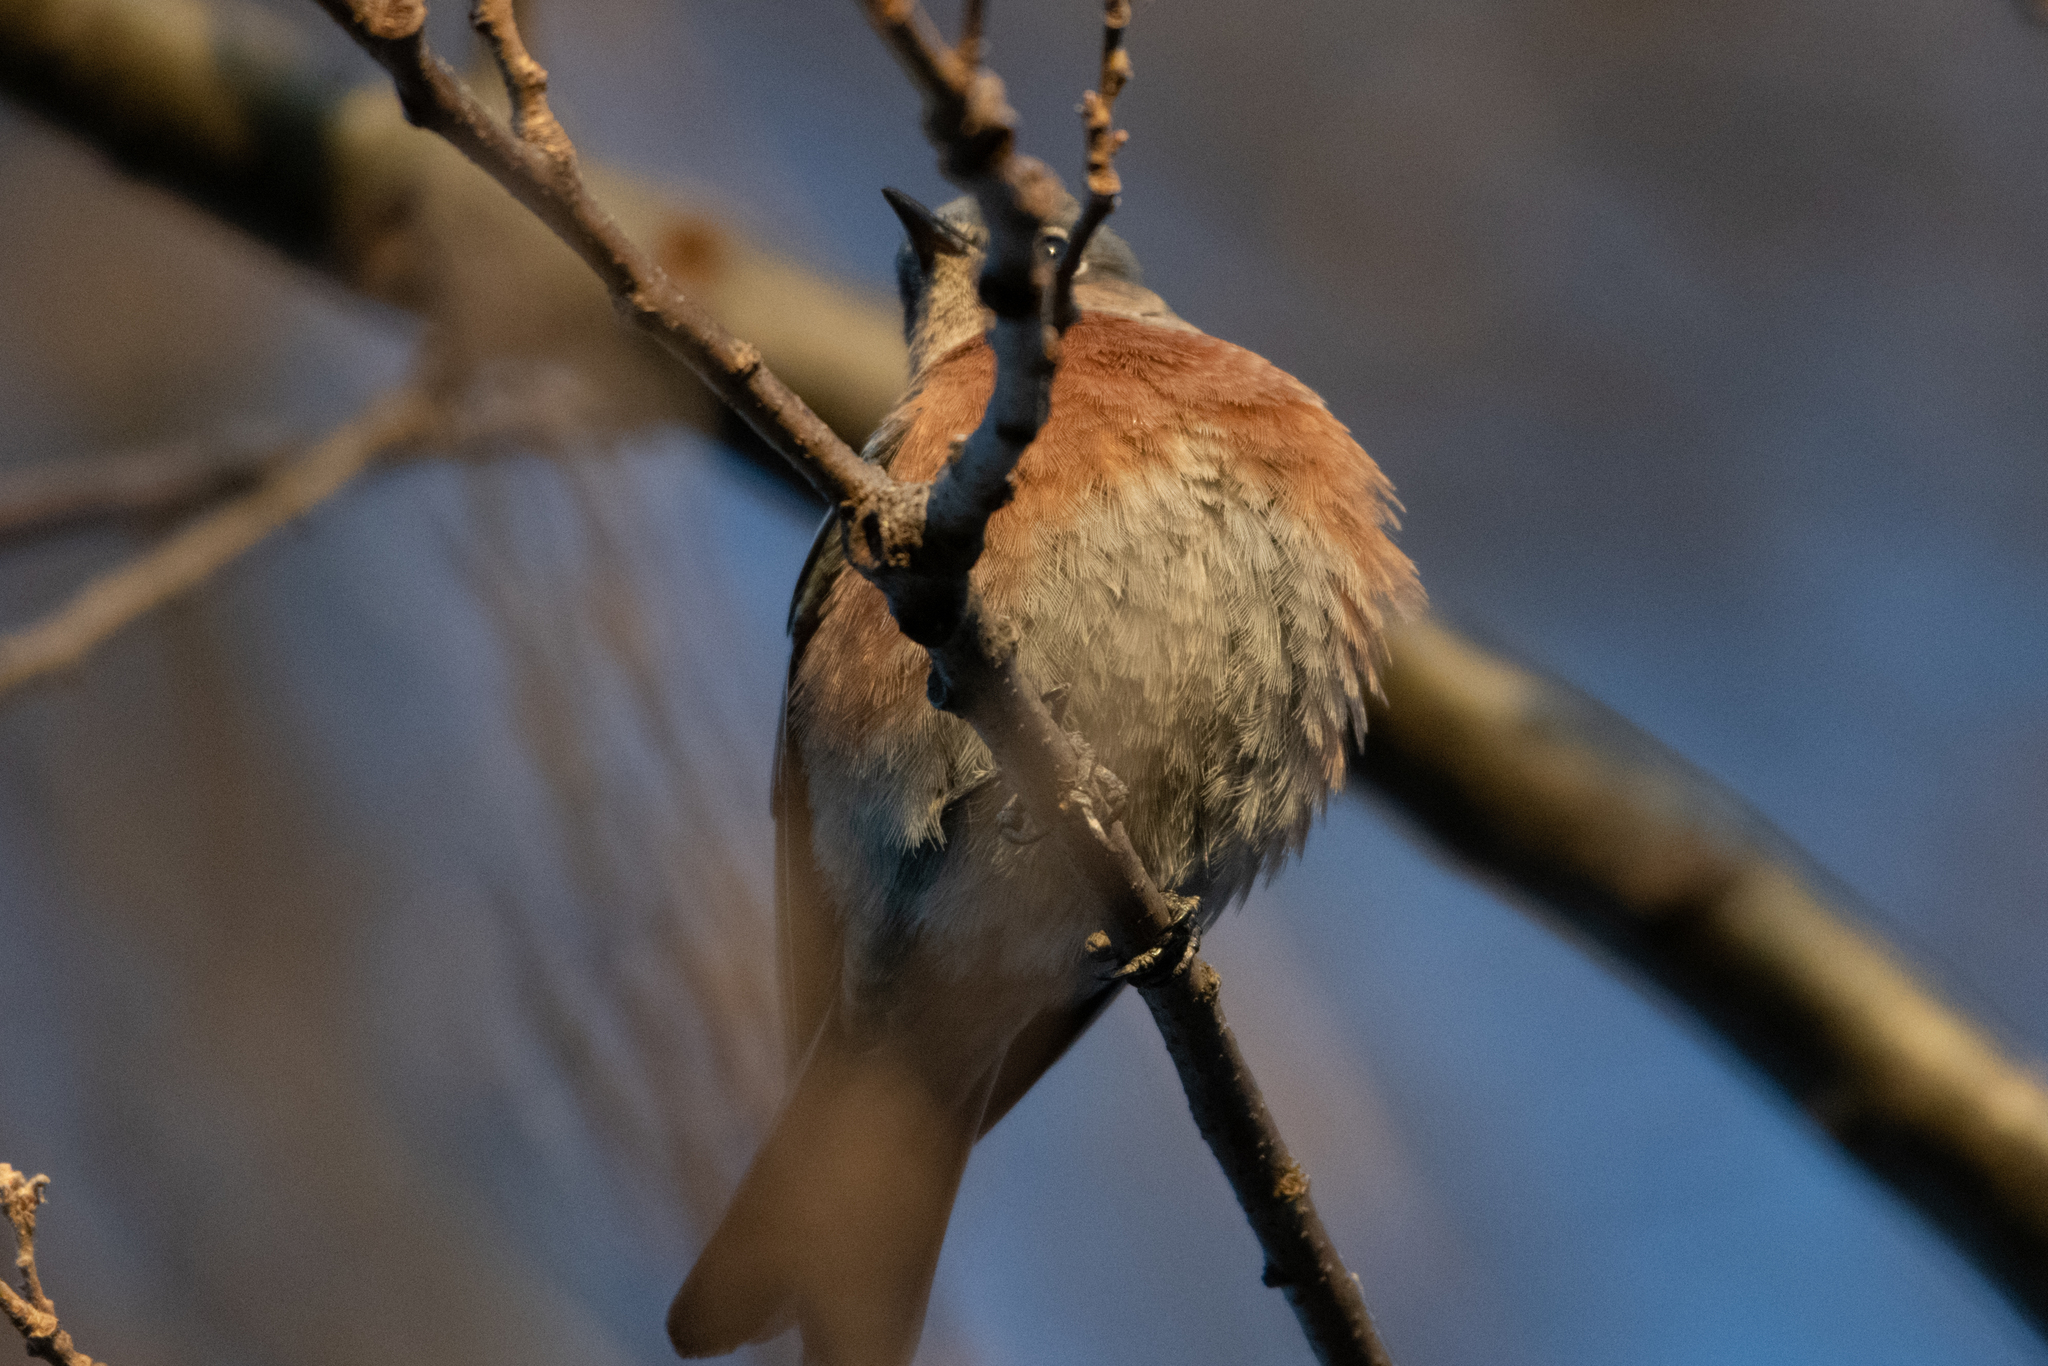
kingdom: Animalia
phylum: Chordata
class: Aves
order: Passeriformes
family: Turdidae
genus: Sialia
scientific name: Sialia mexicana
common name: Western bluebird
